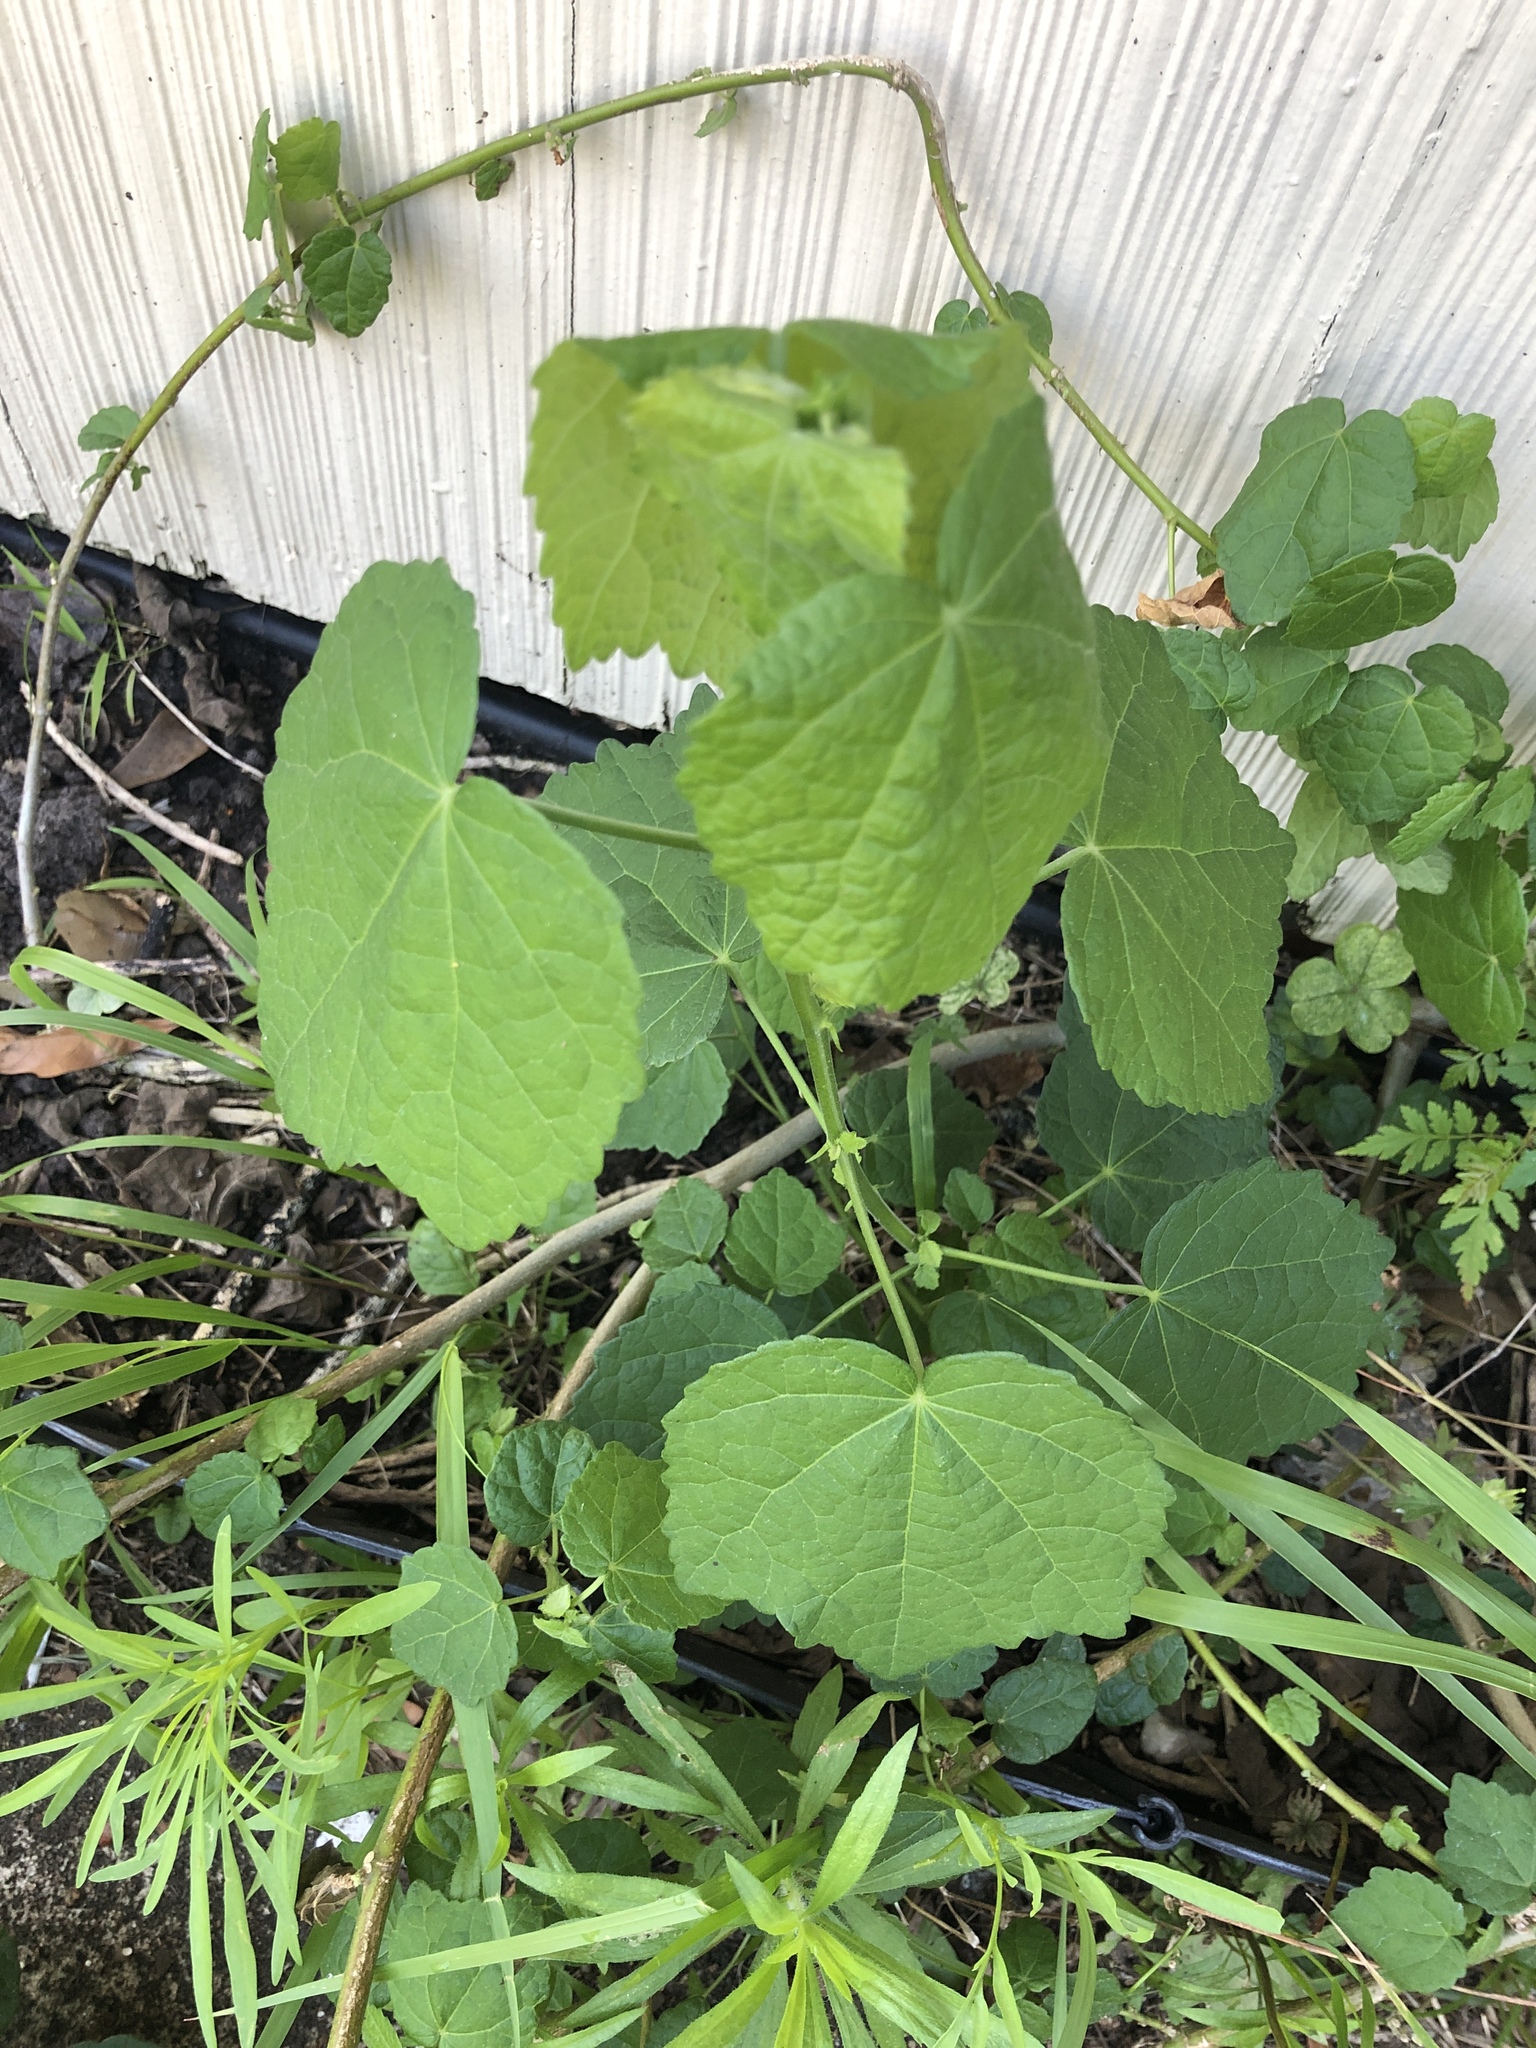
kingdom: Plantae
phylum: Tracheophyta
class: Magnoliopsida
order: Malvales
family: Malvaceae
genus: Malvaviscus
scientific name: Malvaviscus arboreus
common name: Wax mallow
